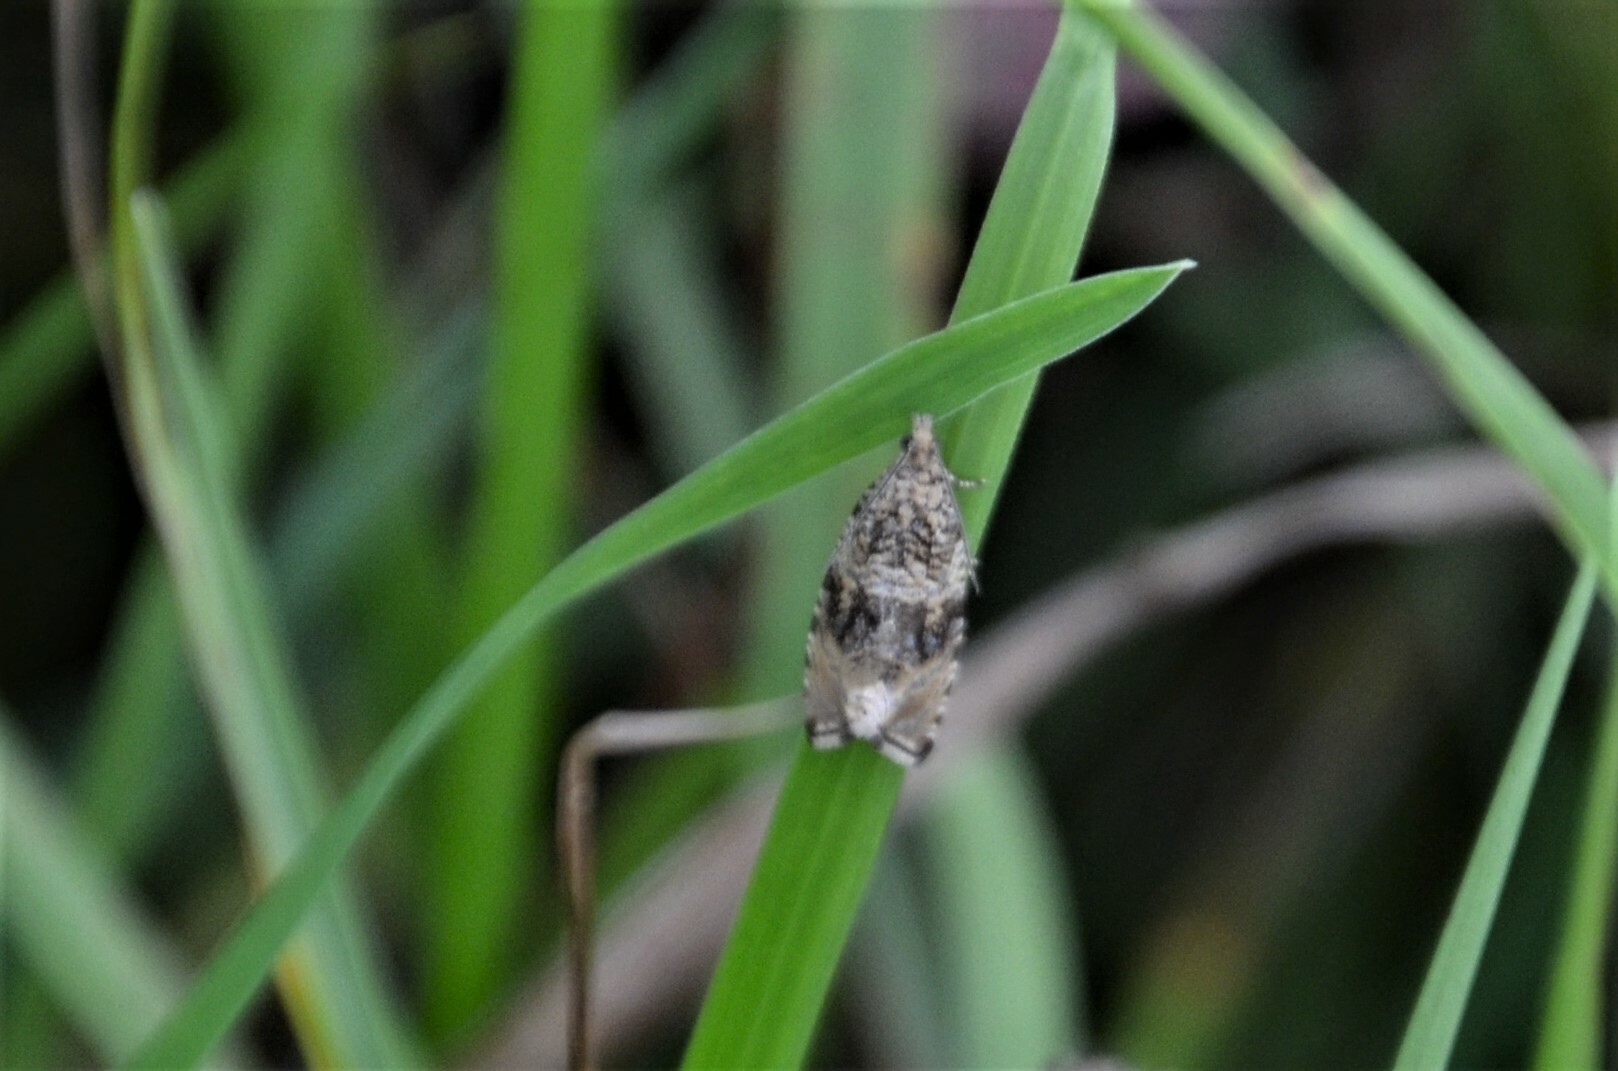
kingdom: Animalia
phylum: Arthropoda
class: Insecta
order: Lepidoptera
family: Tortricidae
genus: Syricoris
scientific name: Syricoris lacunana
